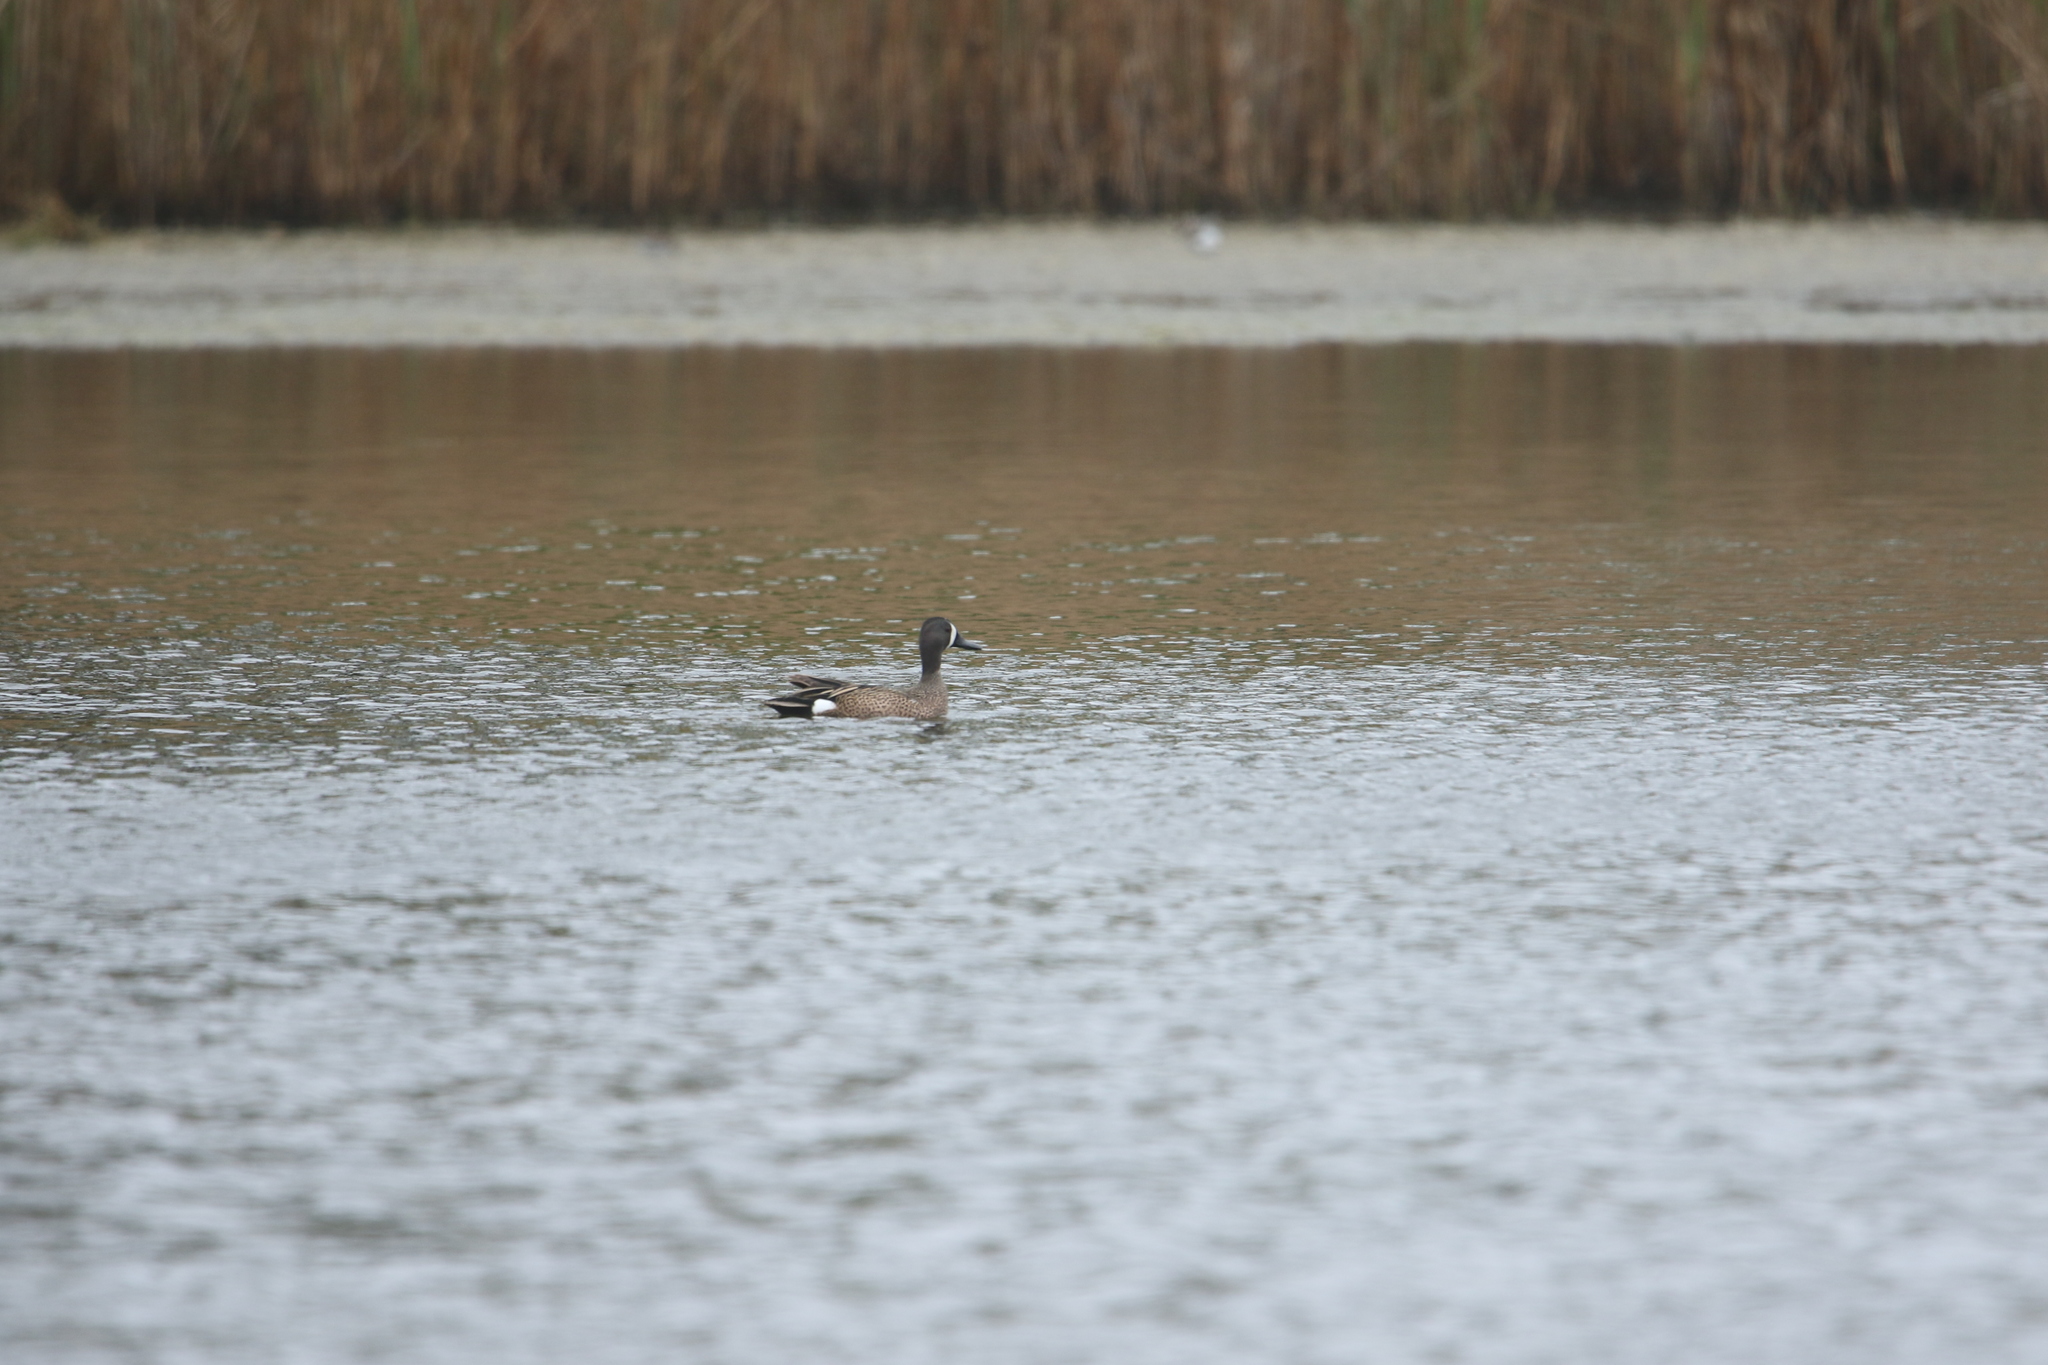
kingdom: Animalia
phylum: Chordata
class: Aves
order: Anseriformes
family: Anatidae
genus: Spatula
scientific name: Spatula discors
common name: Blue-winged teal
